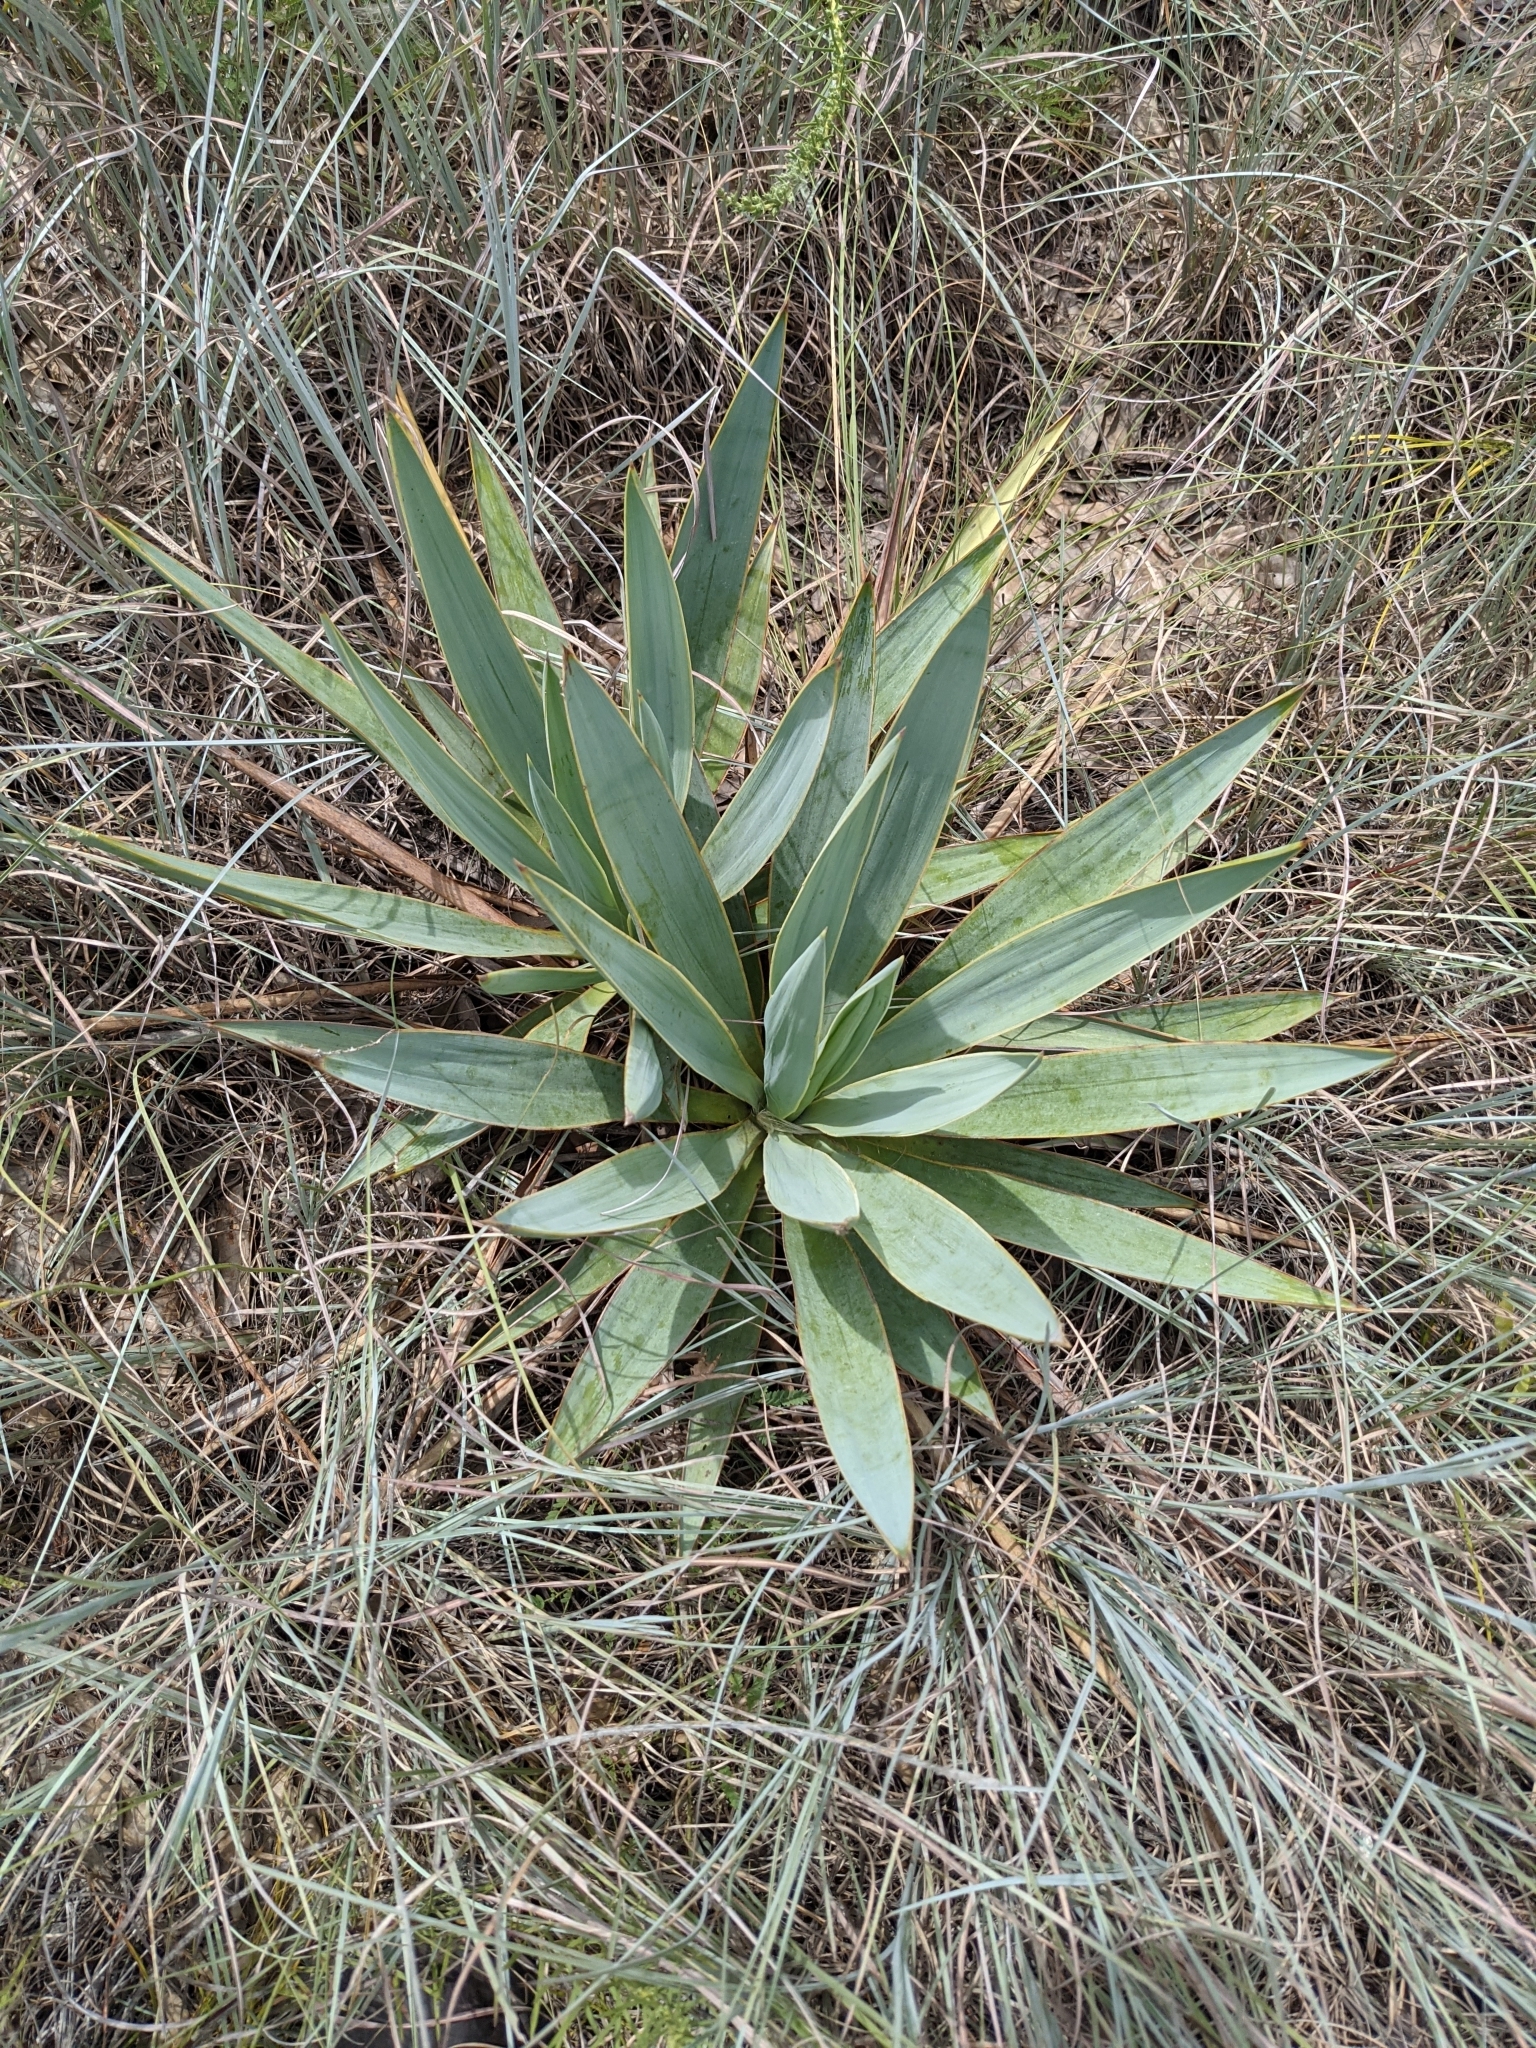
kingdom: Plantae
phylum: Tracheophyta
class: Liliopsida
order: Asparagales
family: Asparagaceae
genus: Yucca
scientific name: Yucca pallida
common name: Pale leaf yucca
